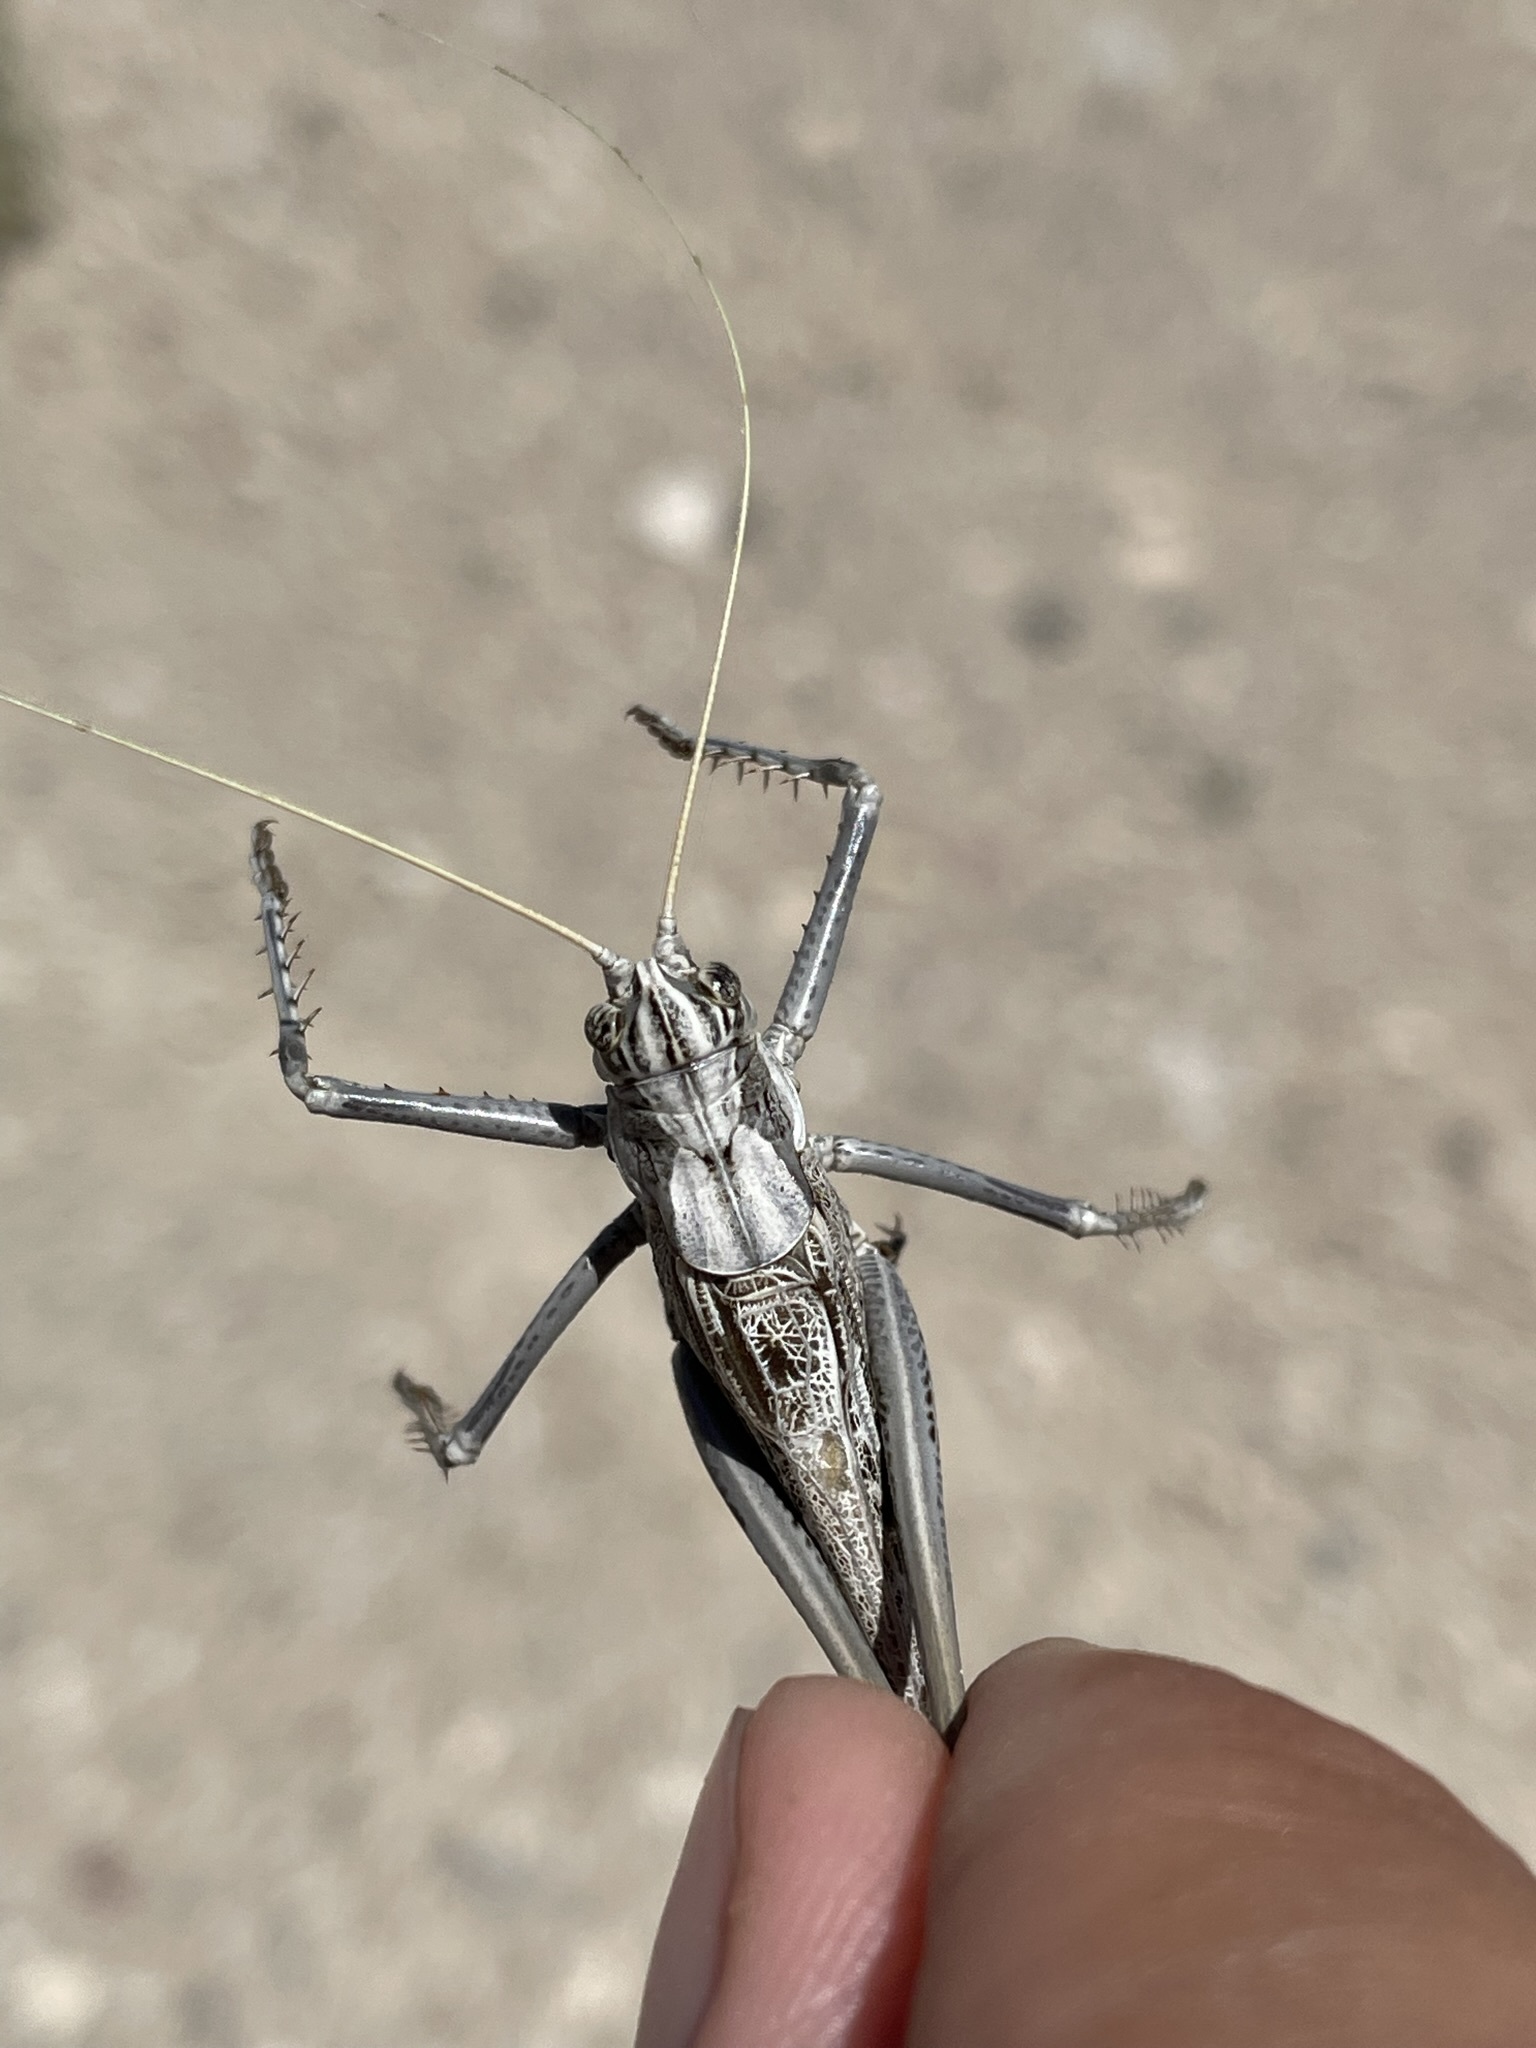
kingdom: Animalia
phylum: Arthropoda
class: Insecta
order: Orthoptera
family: Tettigoniidae
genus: Capnobotes
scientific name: Capnobotes fuliginosus
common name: Sooty longwing
